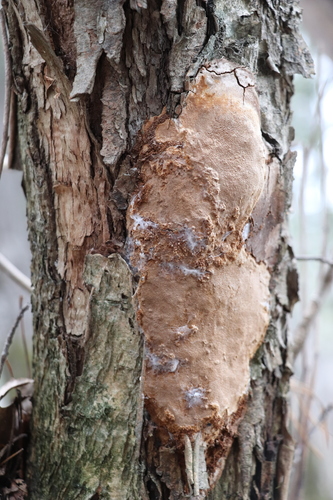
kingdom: Fungi
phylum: Basidiomycota
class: Agaricomycetes
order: Hymenochaetales
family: Hymenochaetaceae
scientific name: Hymenochaetaceae
